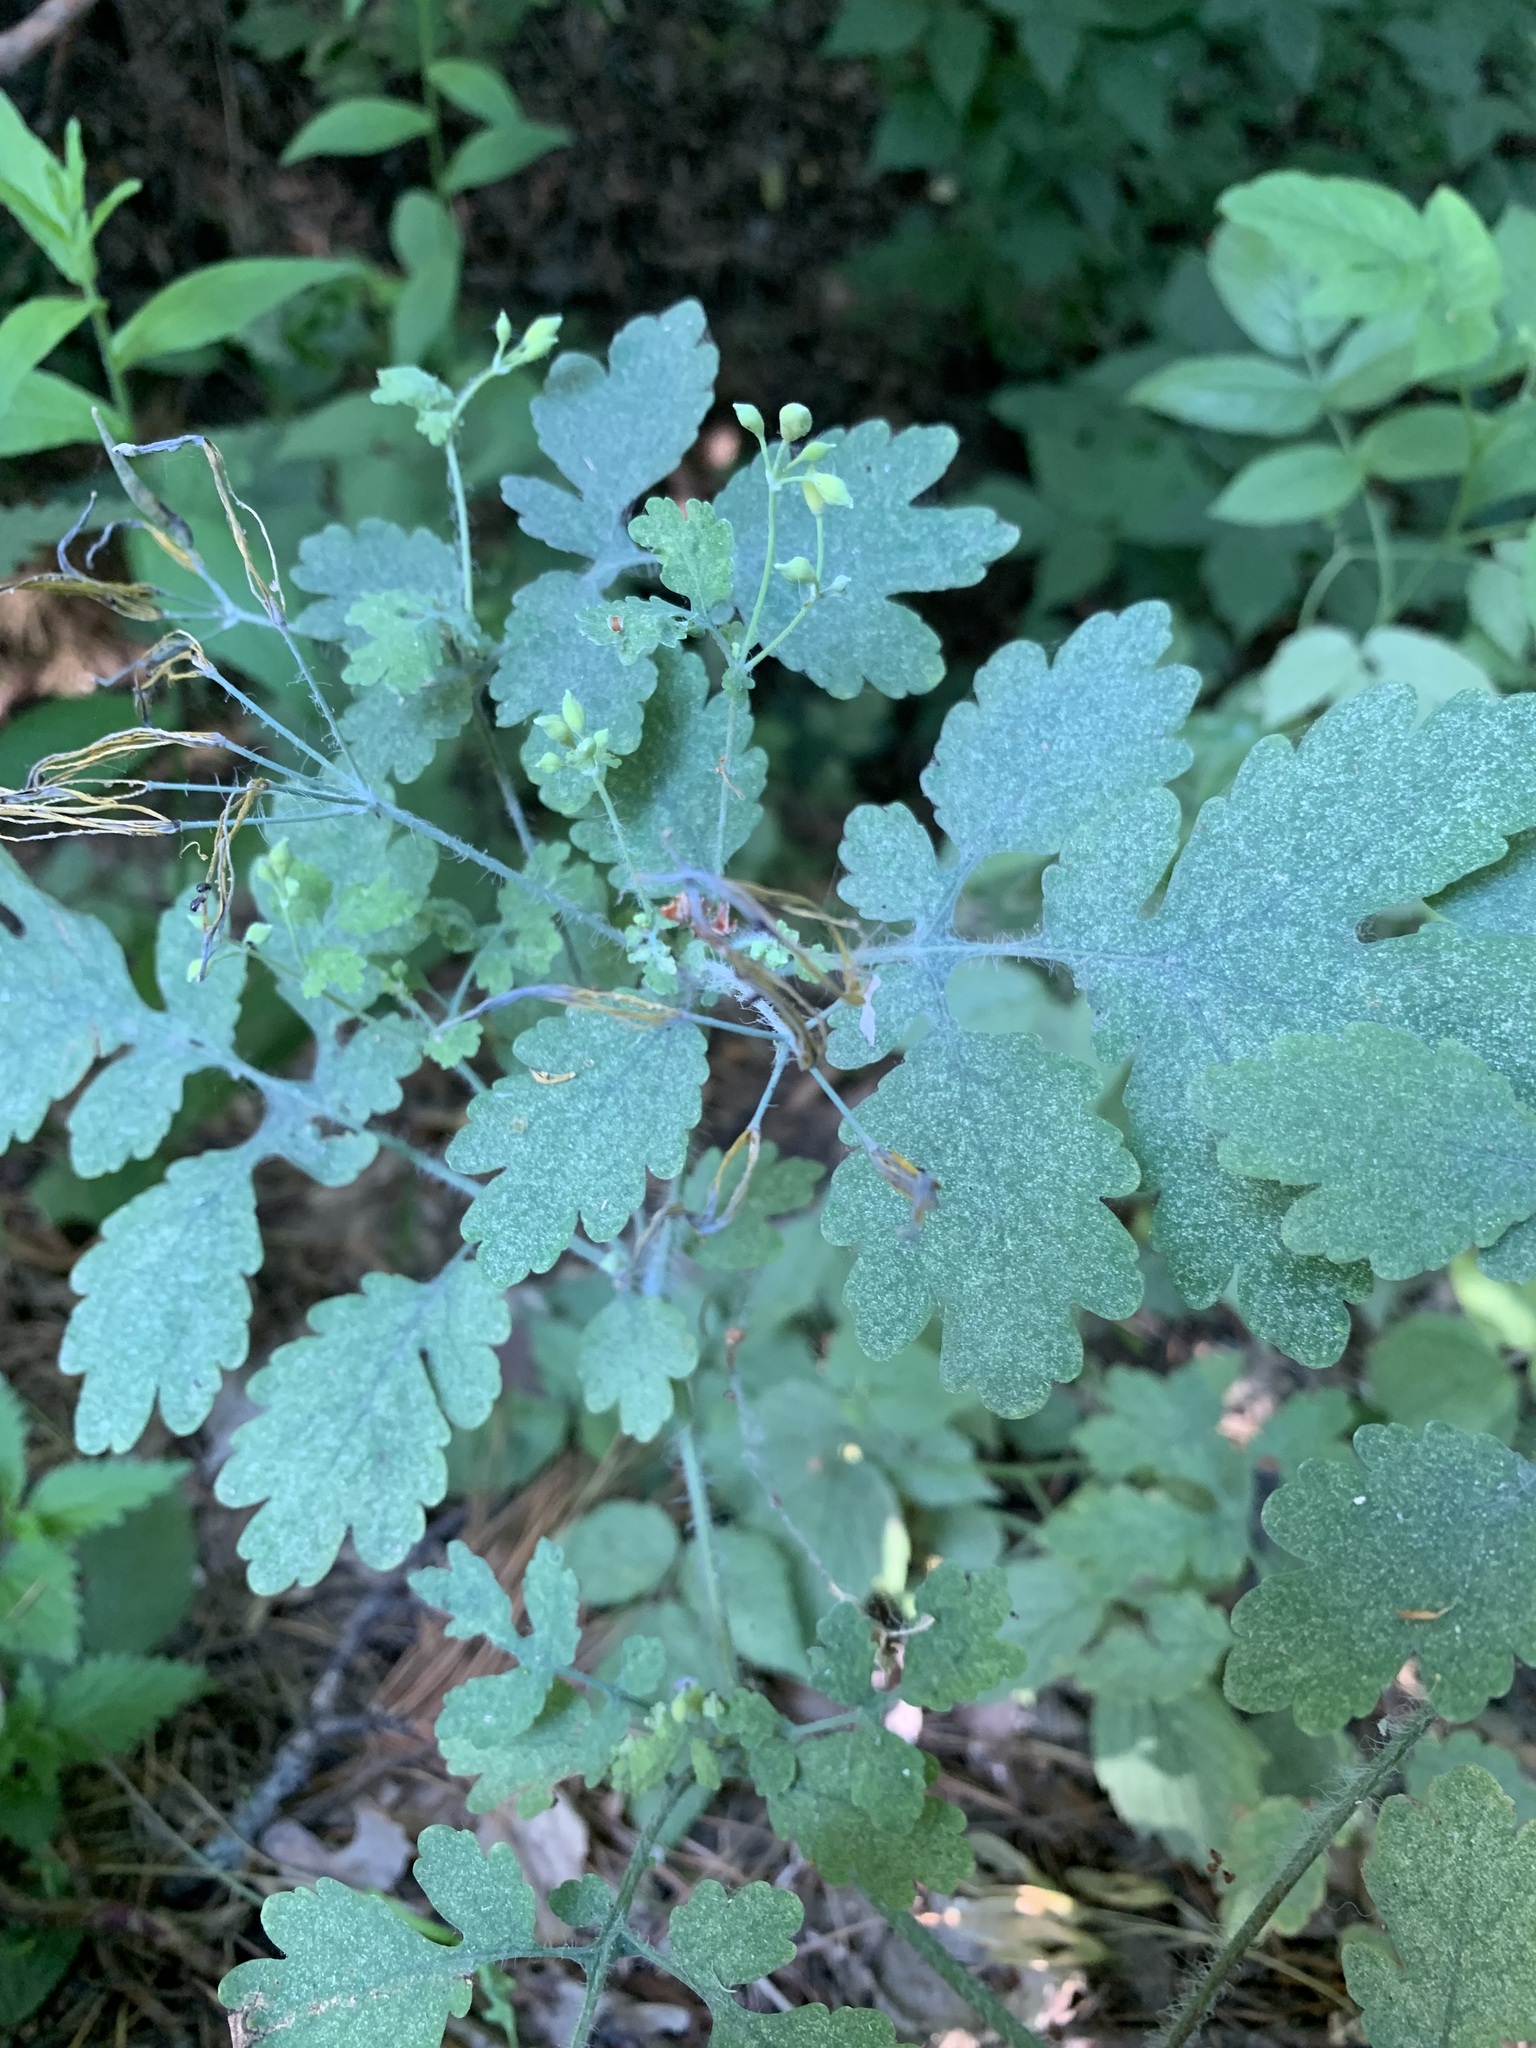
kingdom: Plantae
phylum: Tracheophyta
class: Magnoliopsida
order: Ranunculales
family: Papaveraceae
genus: Chelidonium
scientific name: Chelidonium majus
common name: Greater celandine
